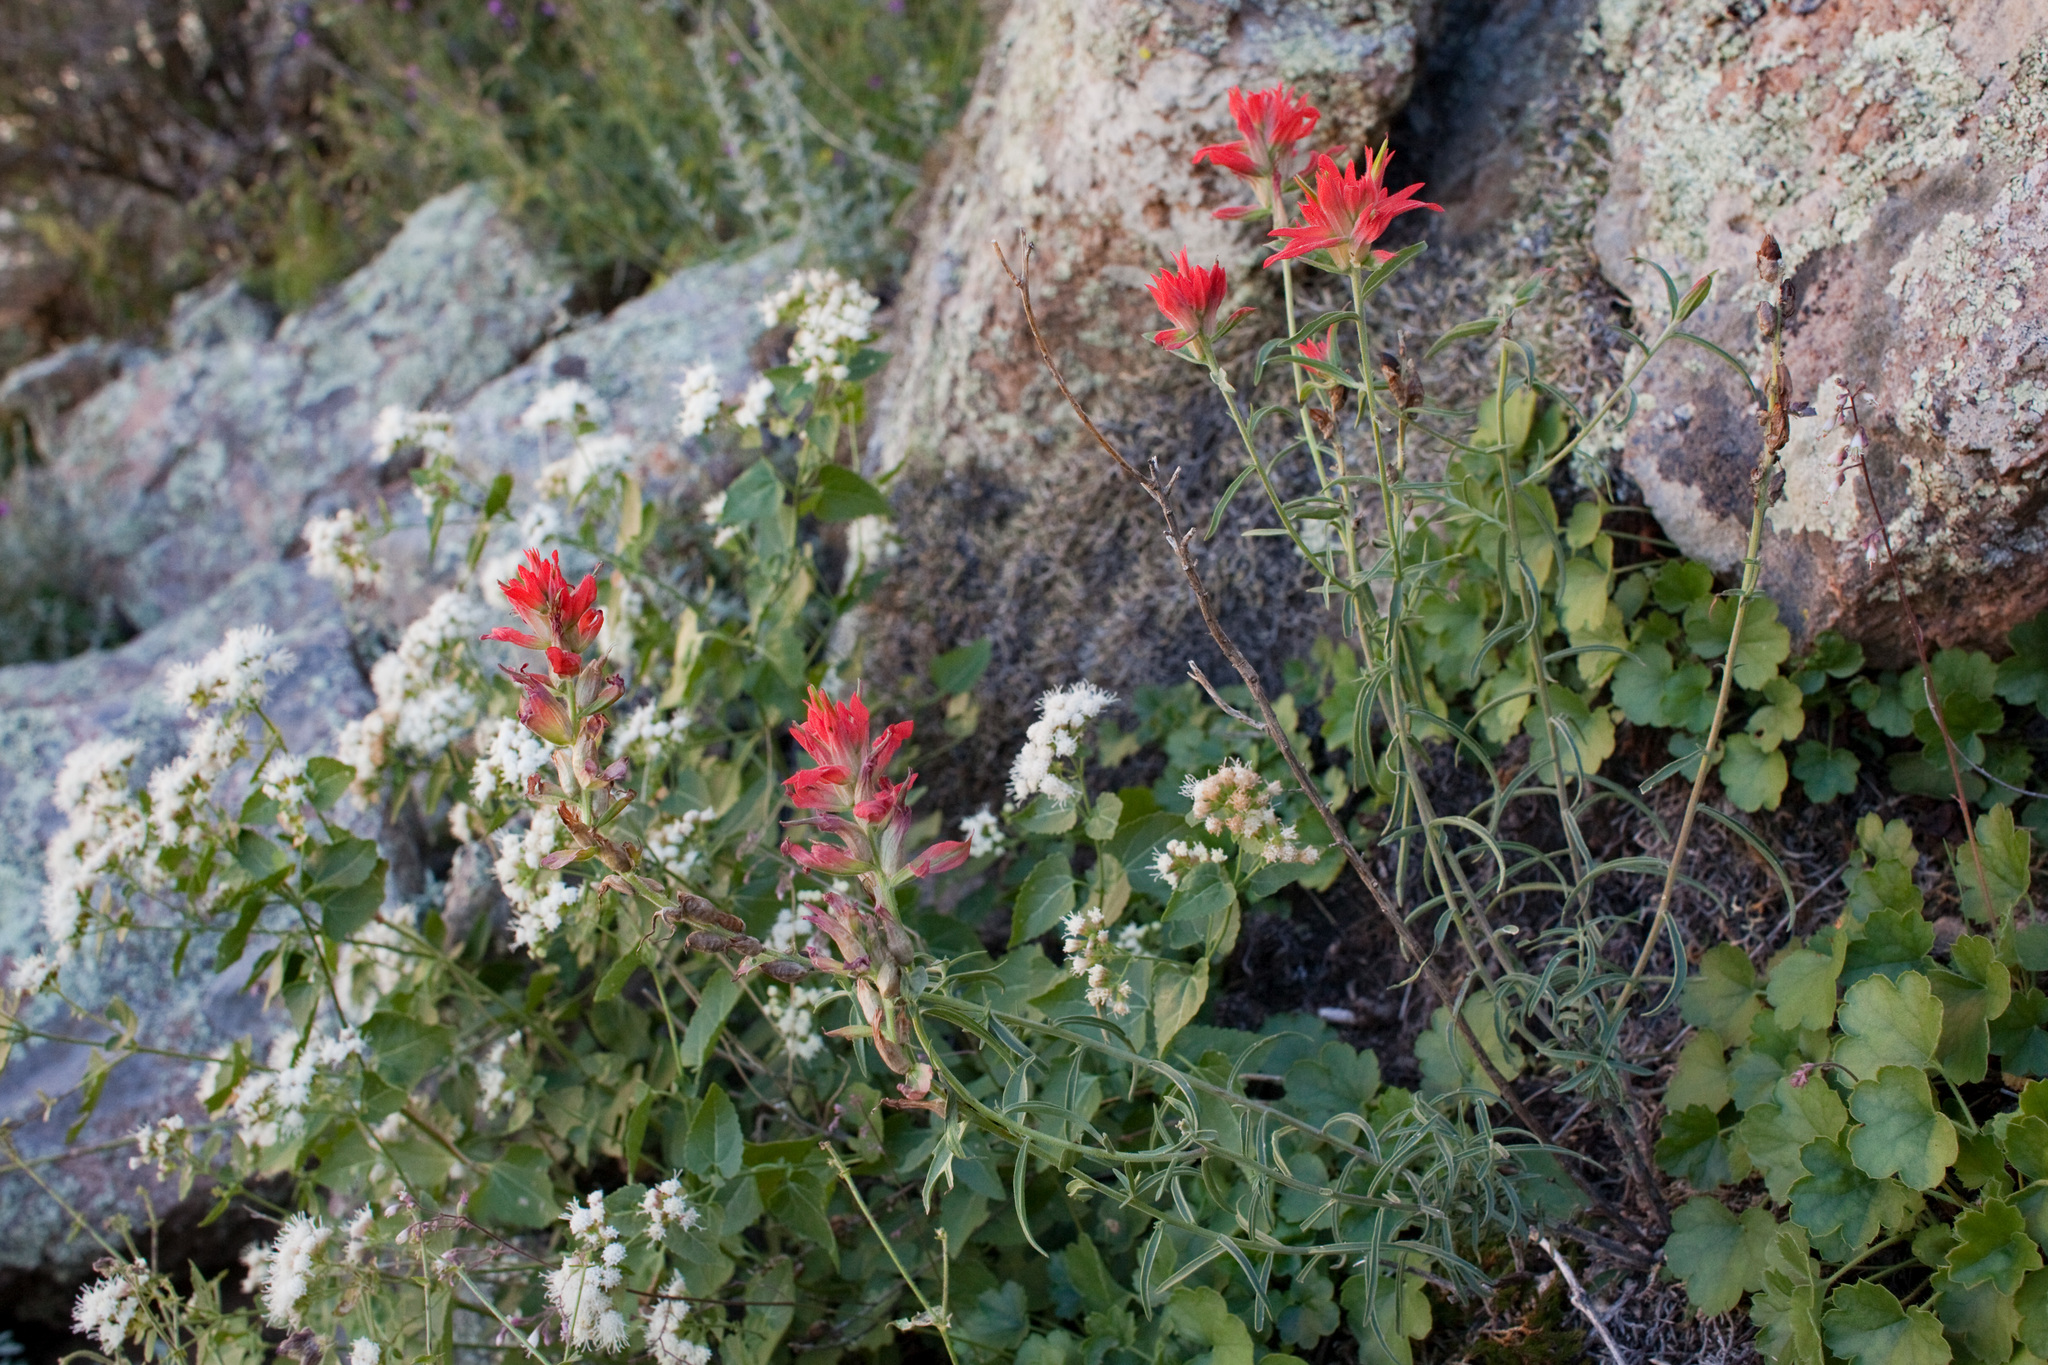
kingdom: Plantae
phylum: Tracheophyta
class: Magnoliopsida
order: Lamiales
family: Orobanchaceae
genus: Castilleja
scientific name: Castilleja organorum
